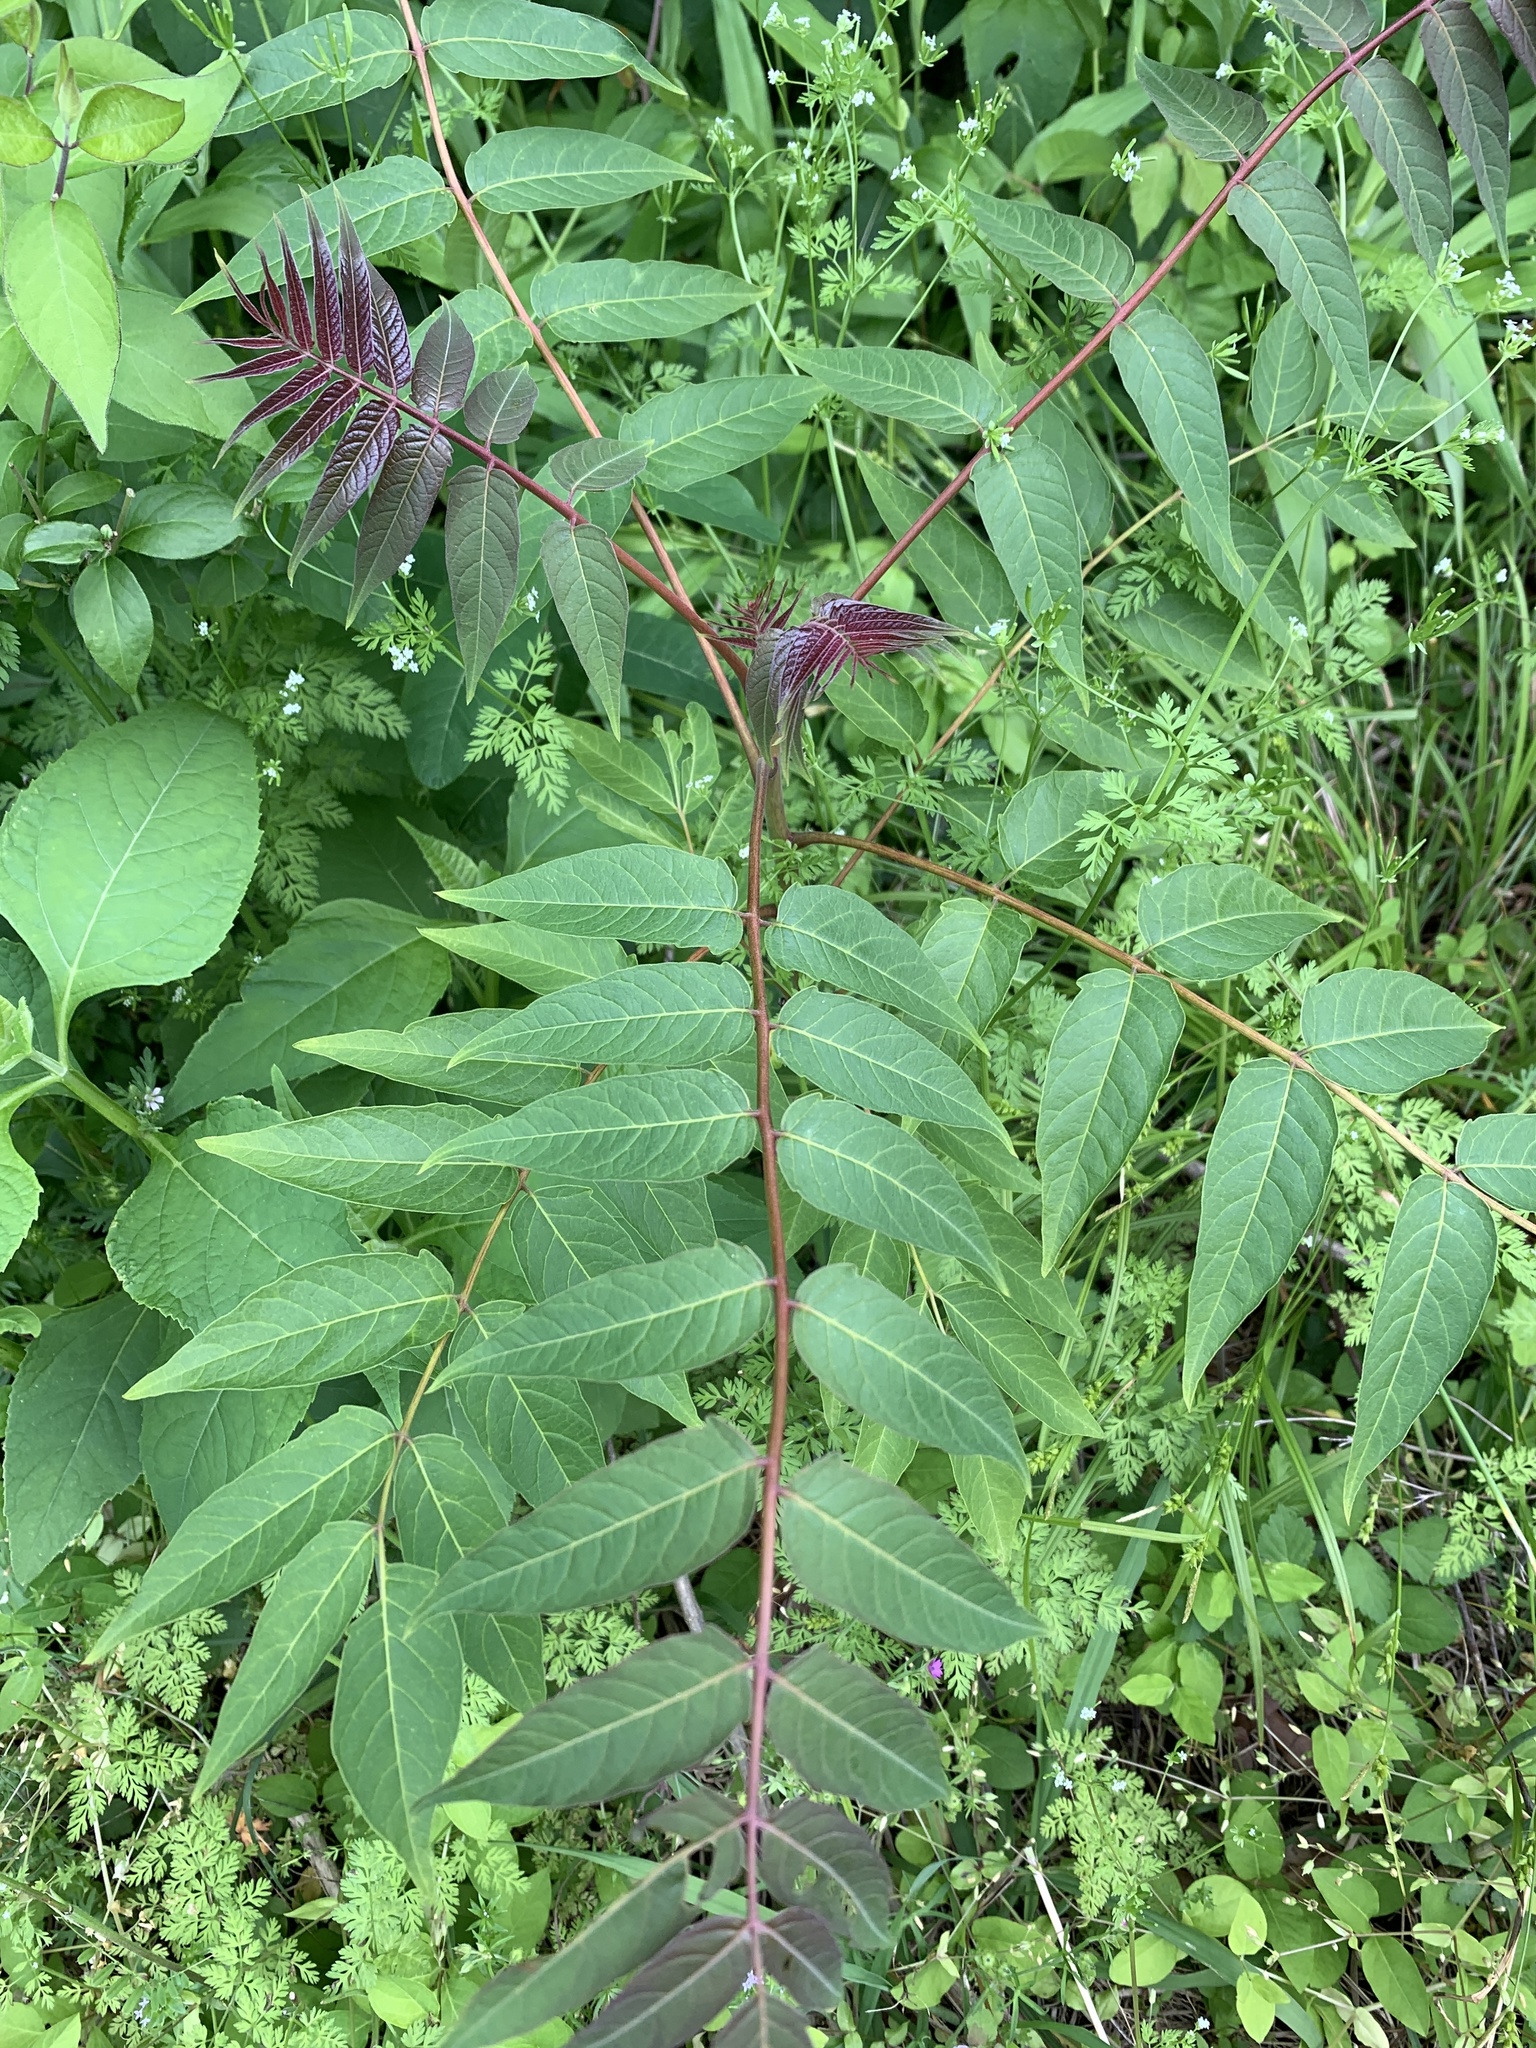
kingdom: Plantae
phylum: Tracheophyta
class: Magnoliopsida
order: Sapindales
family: Simaroubaceae
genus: Ailanthus
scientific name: Ailanthus altissima
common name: Tree-of-heaven
